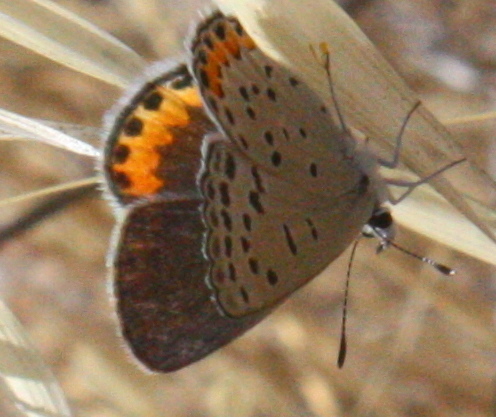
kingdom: Animalia
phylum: Arthropoda
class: Insecta
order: Lepidoptera
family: Lycaenidae
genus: Icaricia
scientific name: Icaricia acmon
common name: Acmon blue
